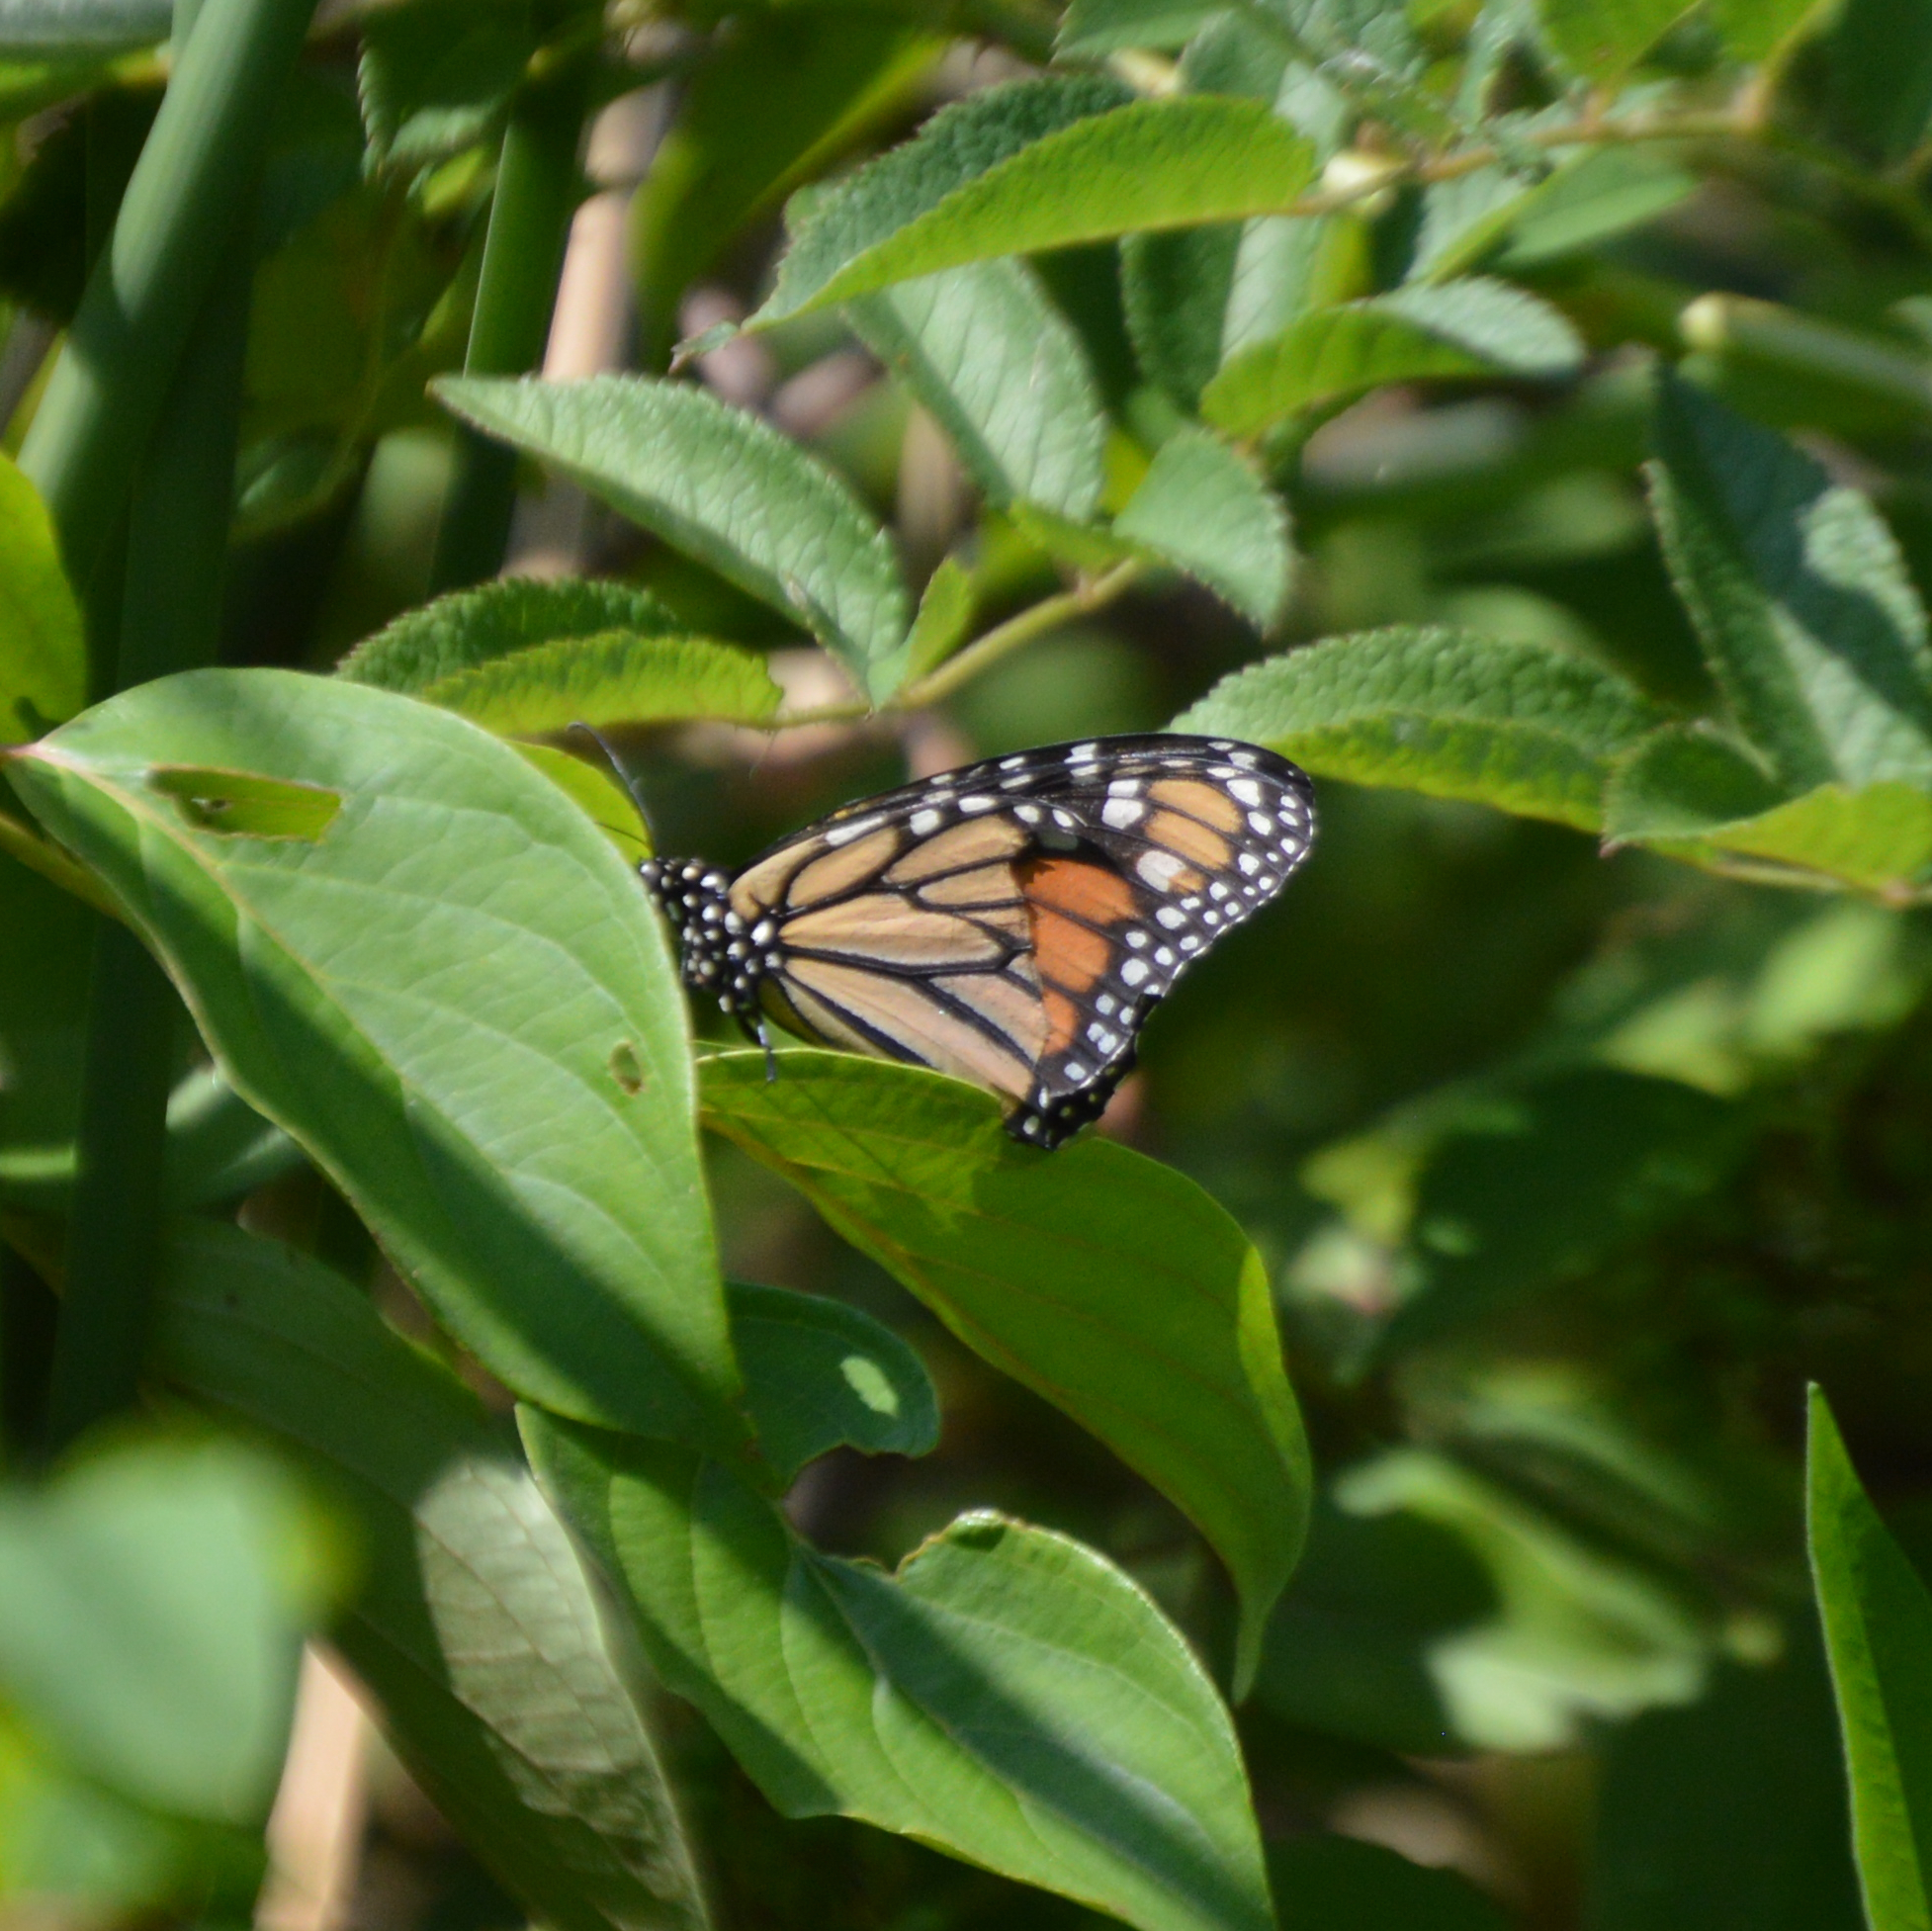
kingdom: Animalia
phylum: Arthropoda
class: Insecta
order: Lepidoptera
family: Nymphalidae
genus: Danaus
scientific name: Danaus plexippus
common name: Monarch
